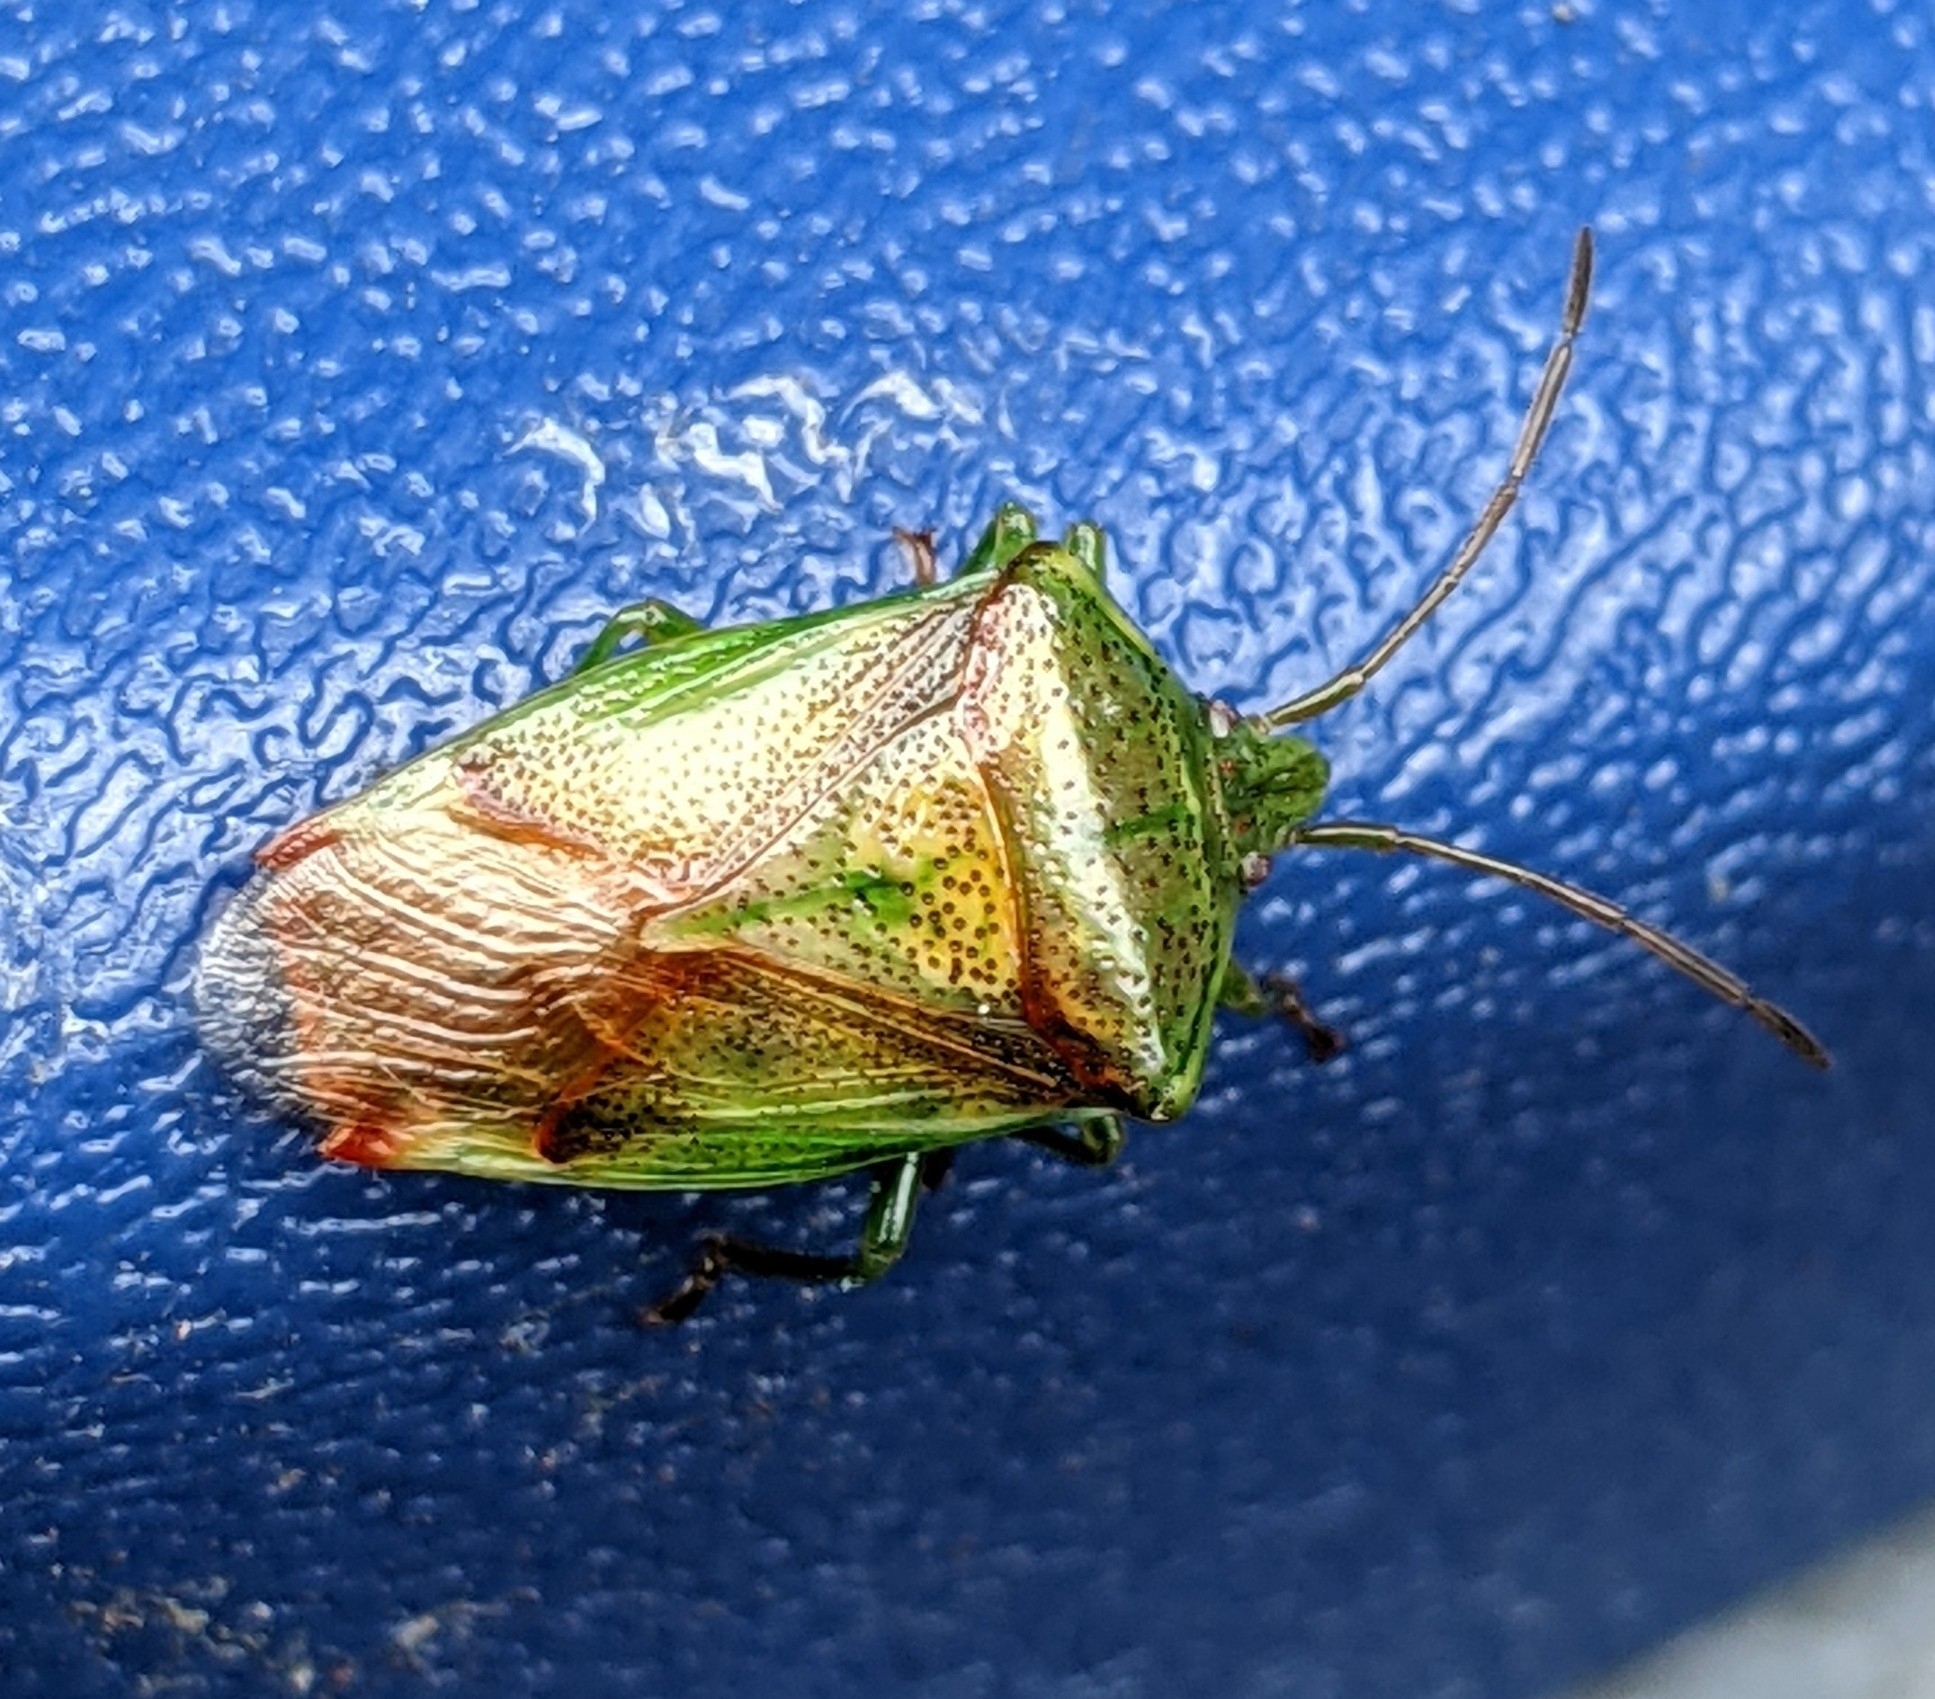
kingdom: Animalia
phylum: Arthropoda
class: Insecta
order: Hemiptera
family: Acanthosomatidae
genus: Elasmostethus
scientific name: Elasmostethus cruciatus
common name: Red-cross shield bug
